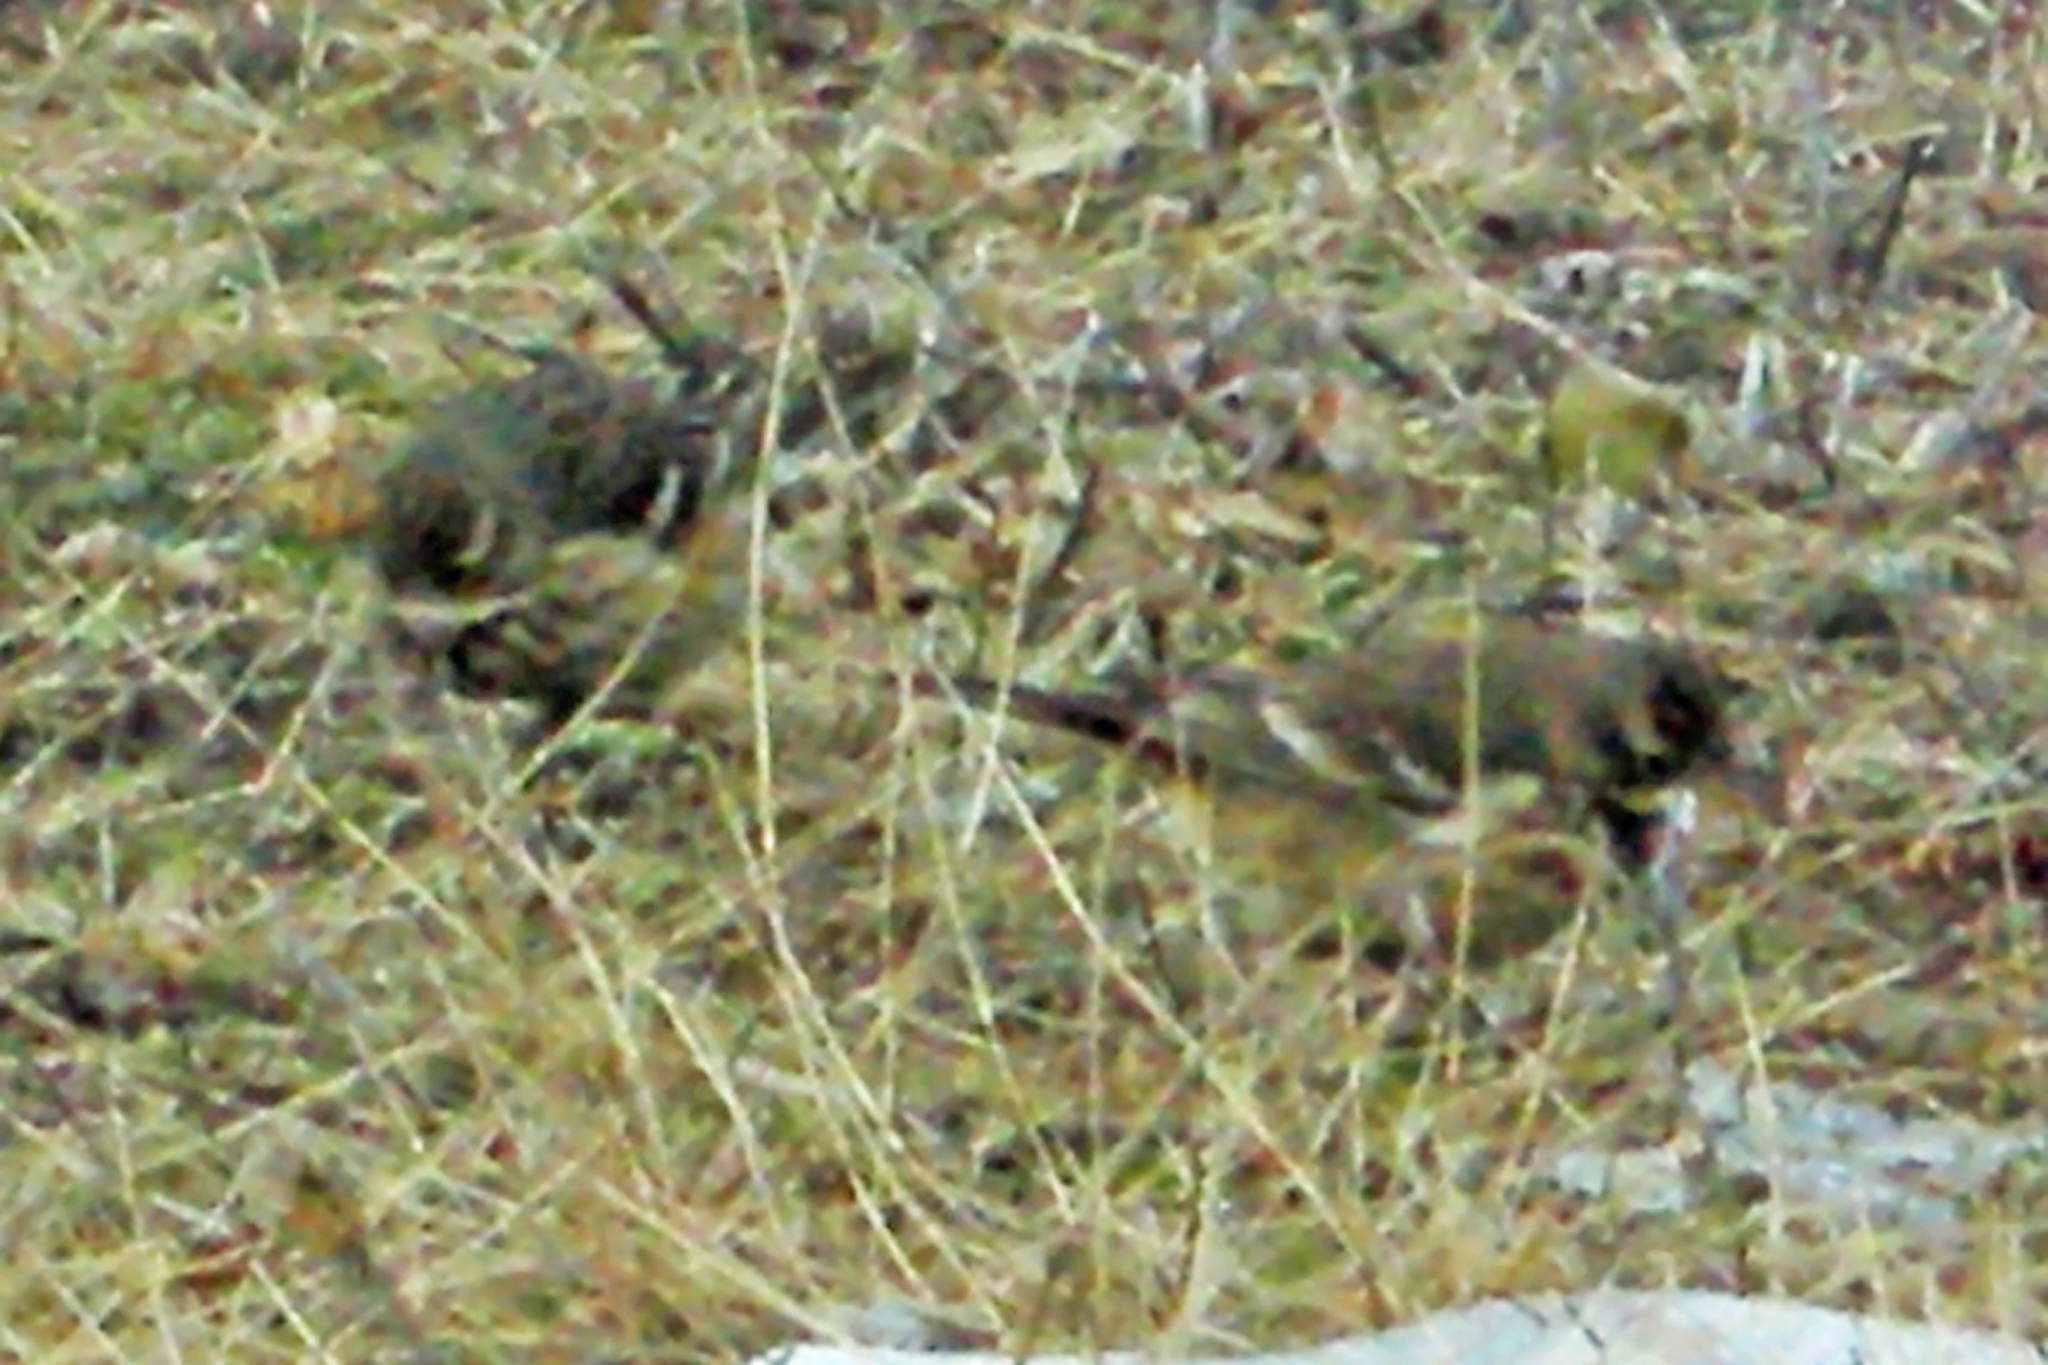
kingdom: Animalia
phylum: Chordata
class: Aves
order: Passeriformes
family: Motacillidae
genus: Anthus
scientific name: Anthus rubescens
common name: Buff-bellied pipit
